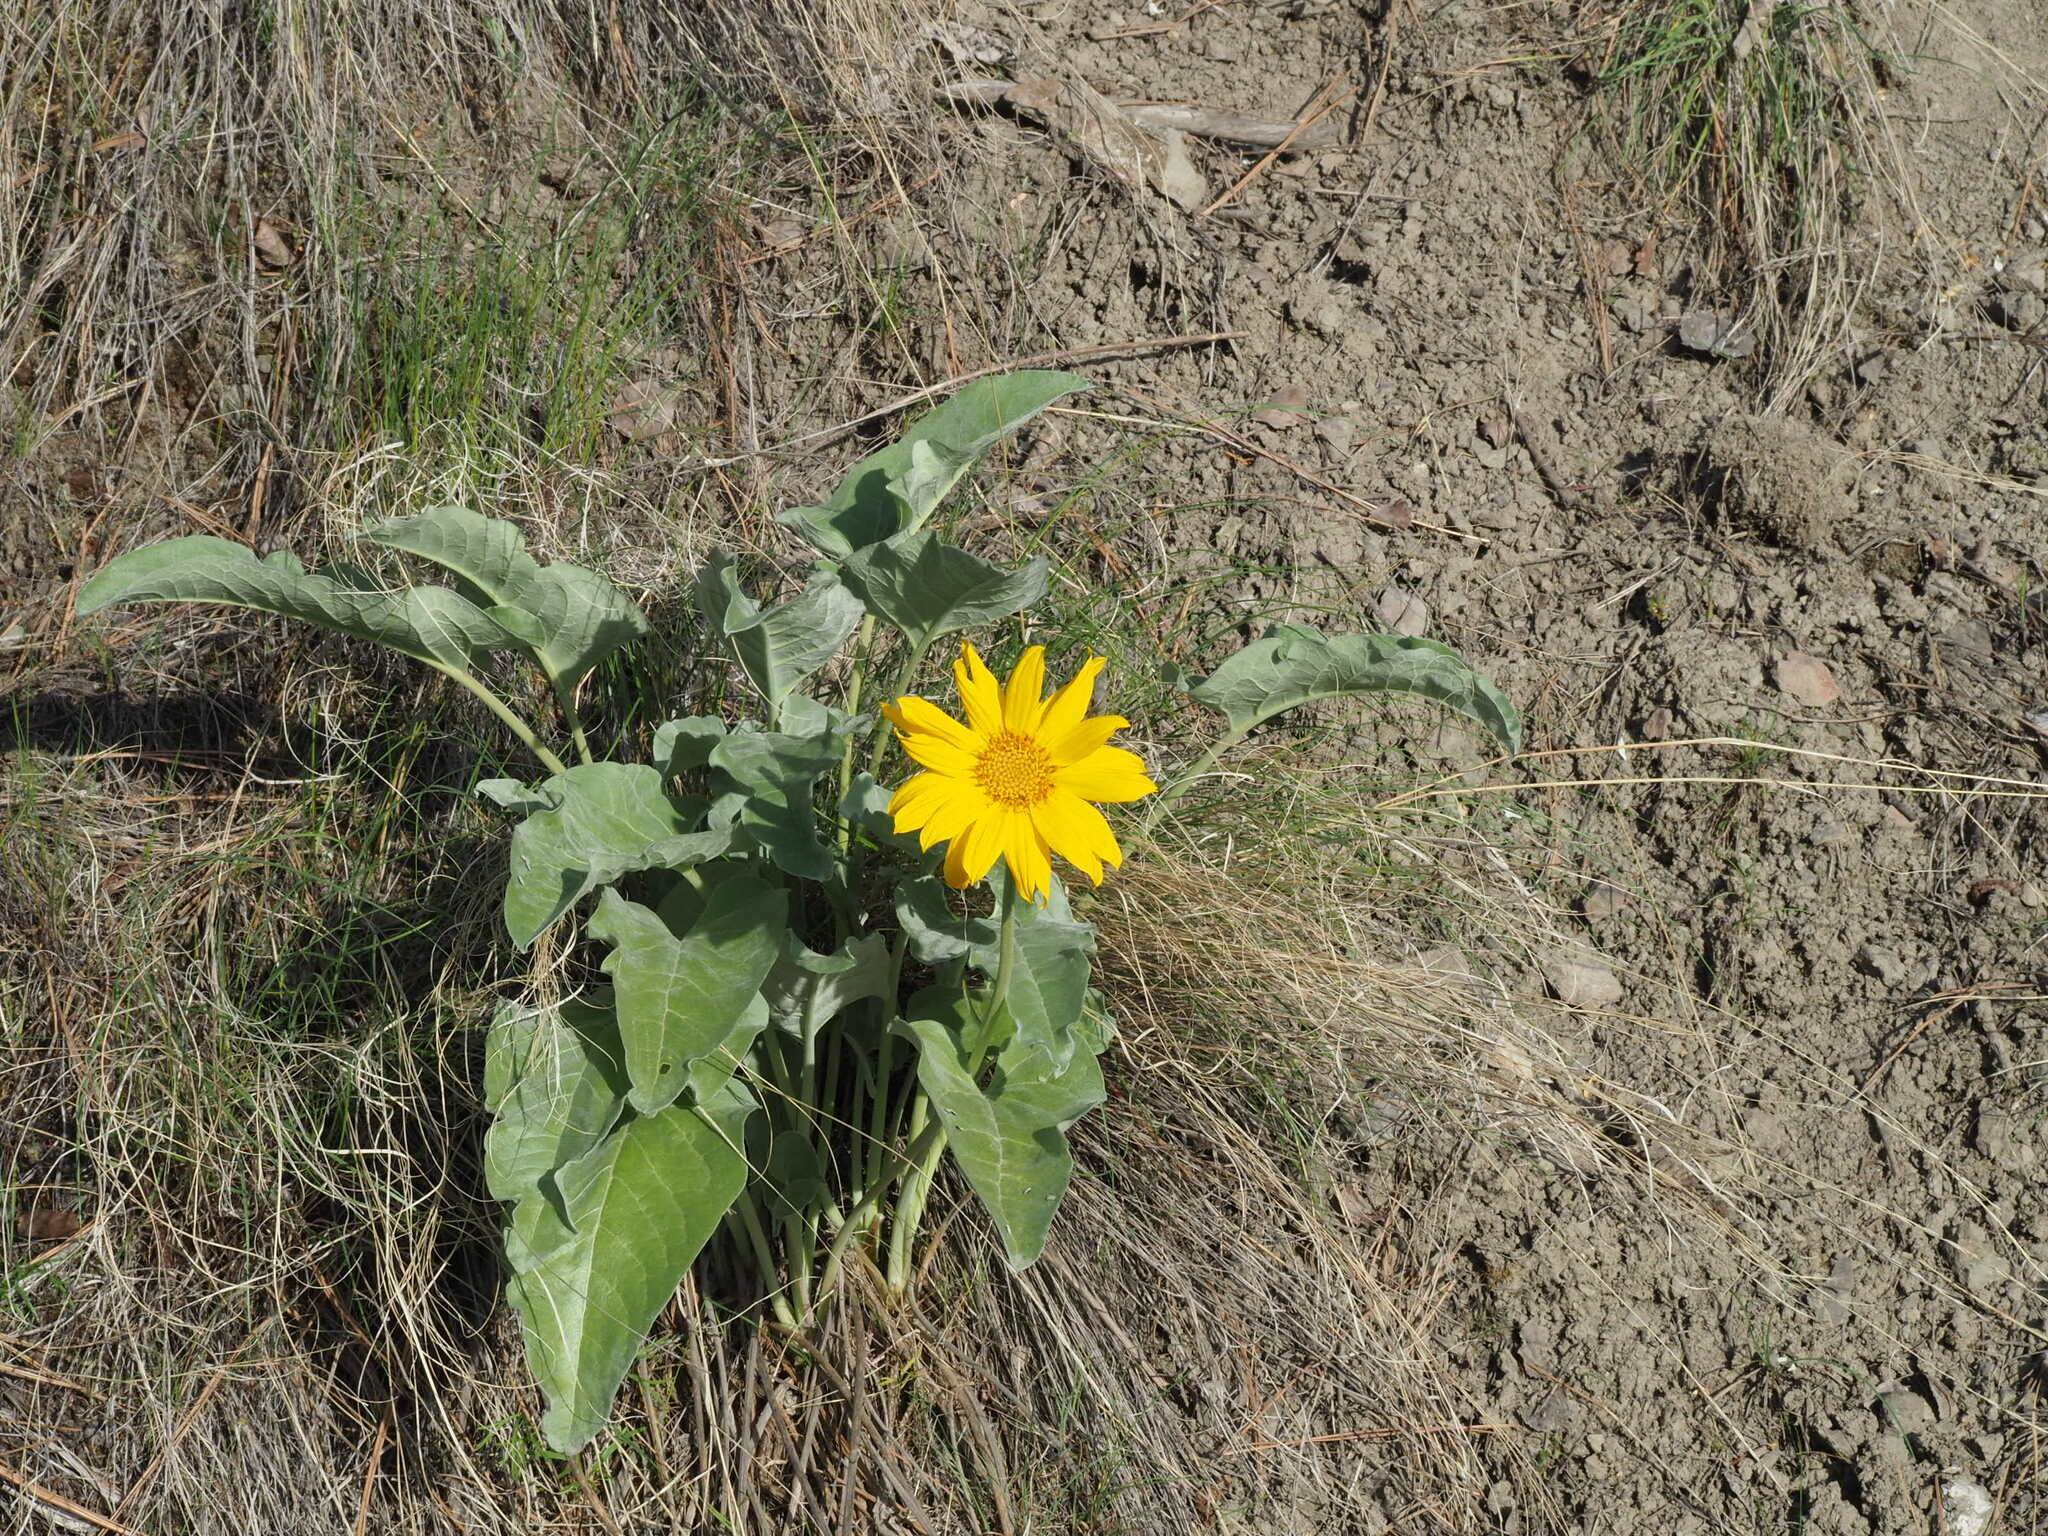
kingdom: Plantae
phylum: Tracheophyta
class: Magnoliopsida
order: Asterales
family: Asteraceae
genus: Wyethia
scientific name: Wyethia sagittata
